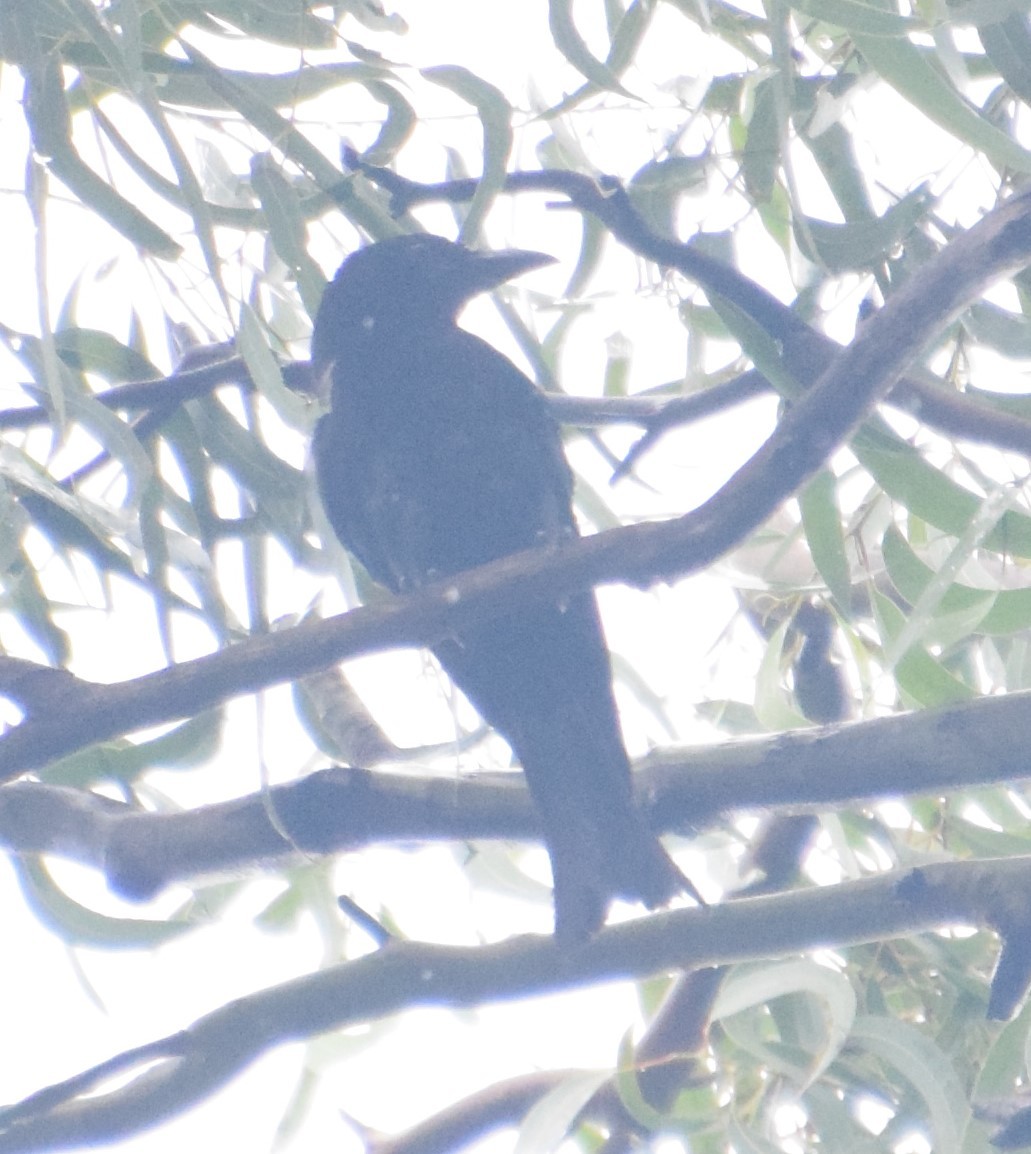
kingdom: Animalia
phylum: Chordata
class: Aves
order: Passeriformes
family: Dicruridae
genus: Dicrurus
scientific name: Dicrurus bracteatus
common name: Spangled drongo
